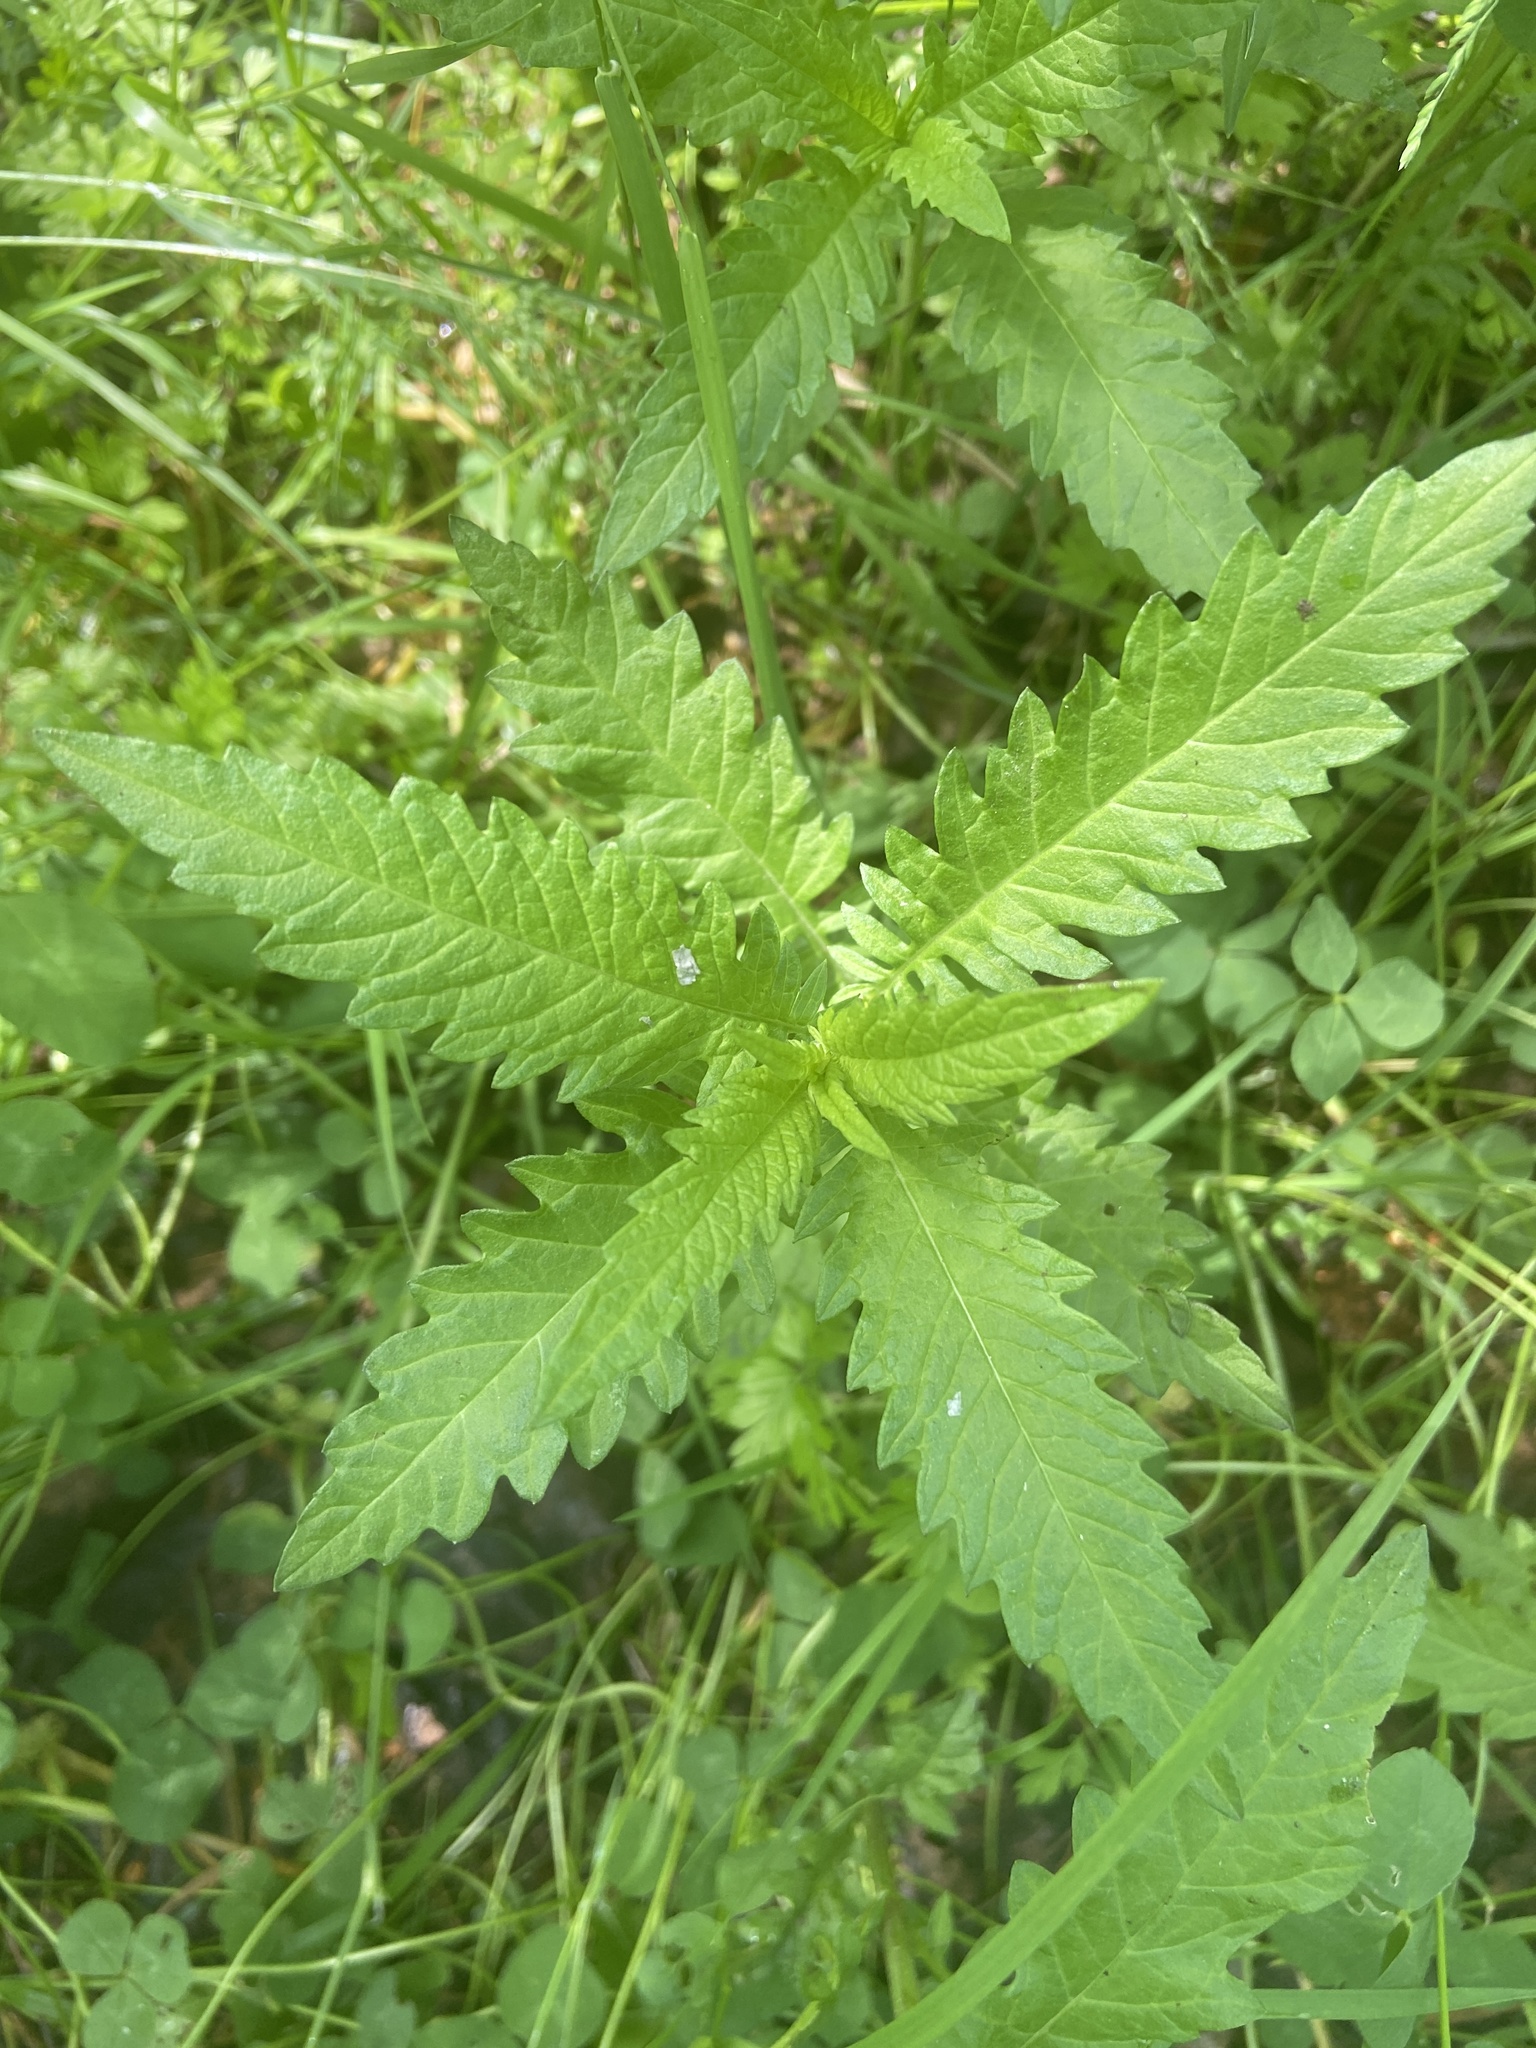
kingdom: Plantae
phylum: Tracheophyta
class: Magnoliopsida
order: Lamiales
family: Lamiaceae
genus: Lycopus
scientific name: Lycopus europaeus
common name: European bugleweed
